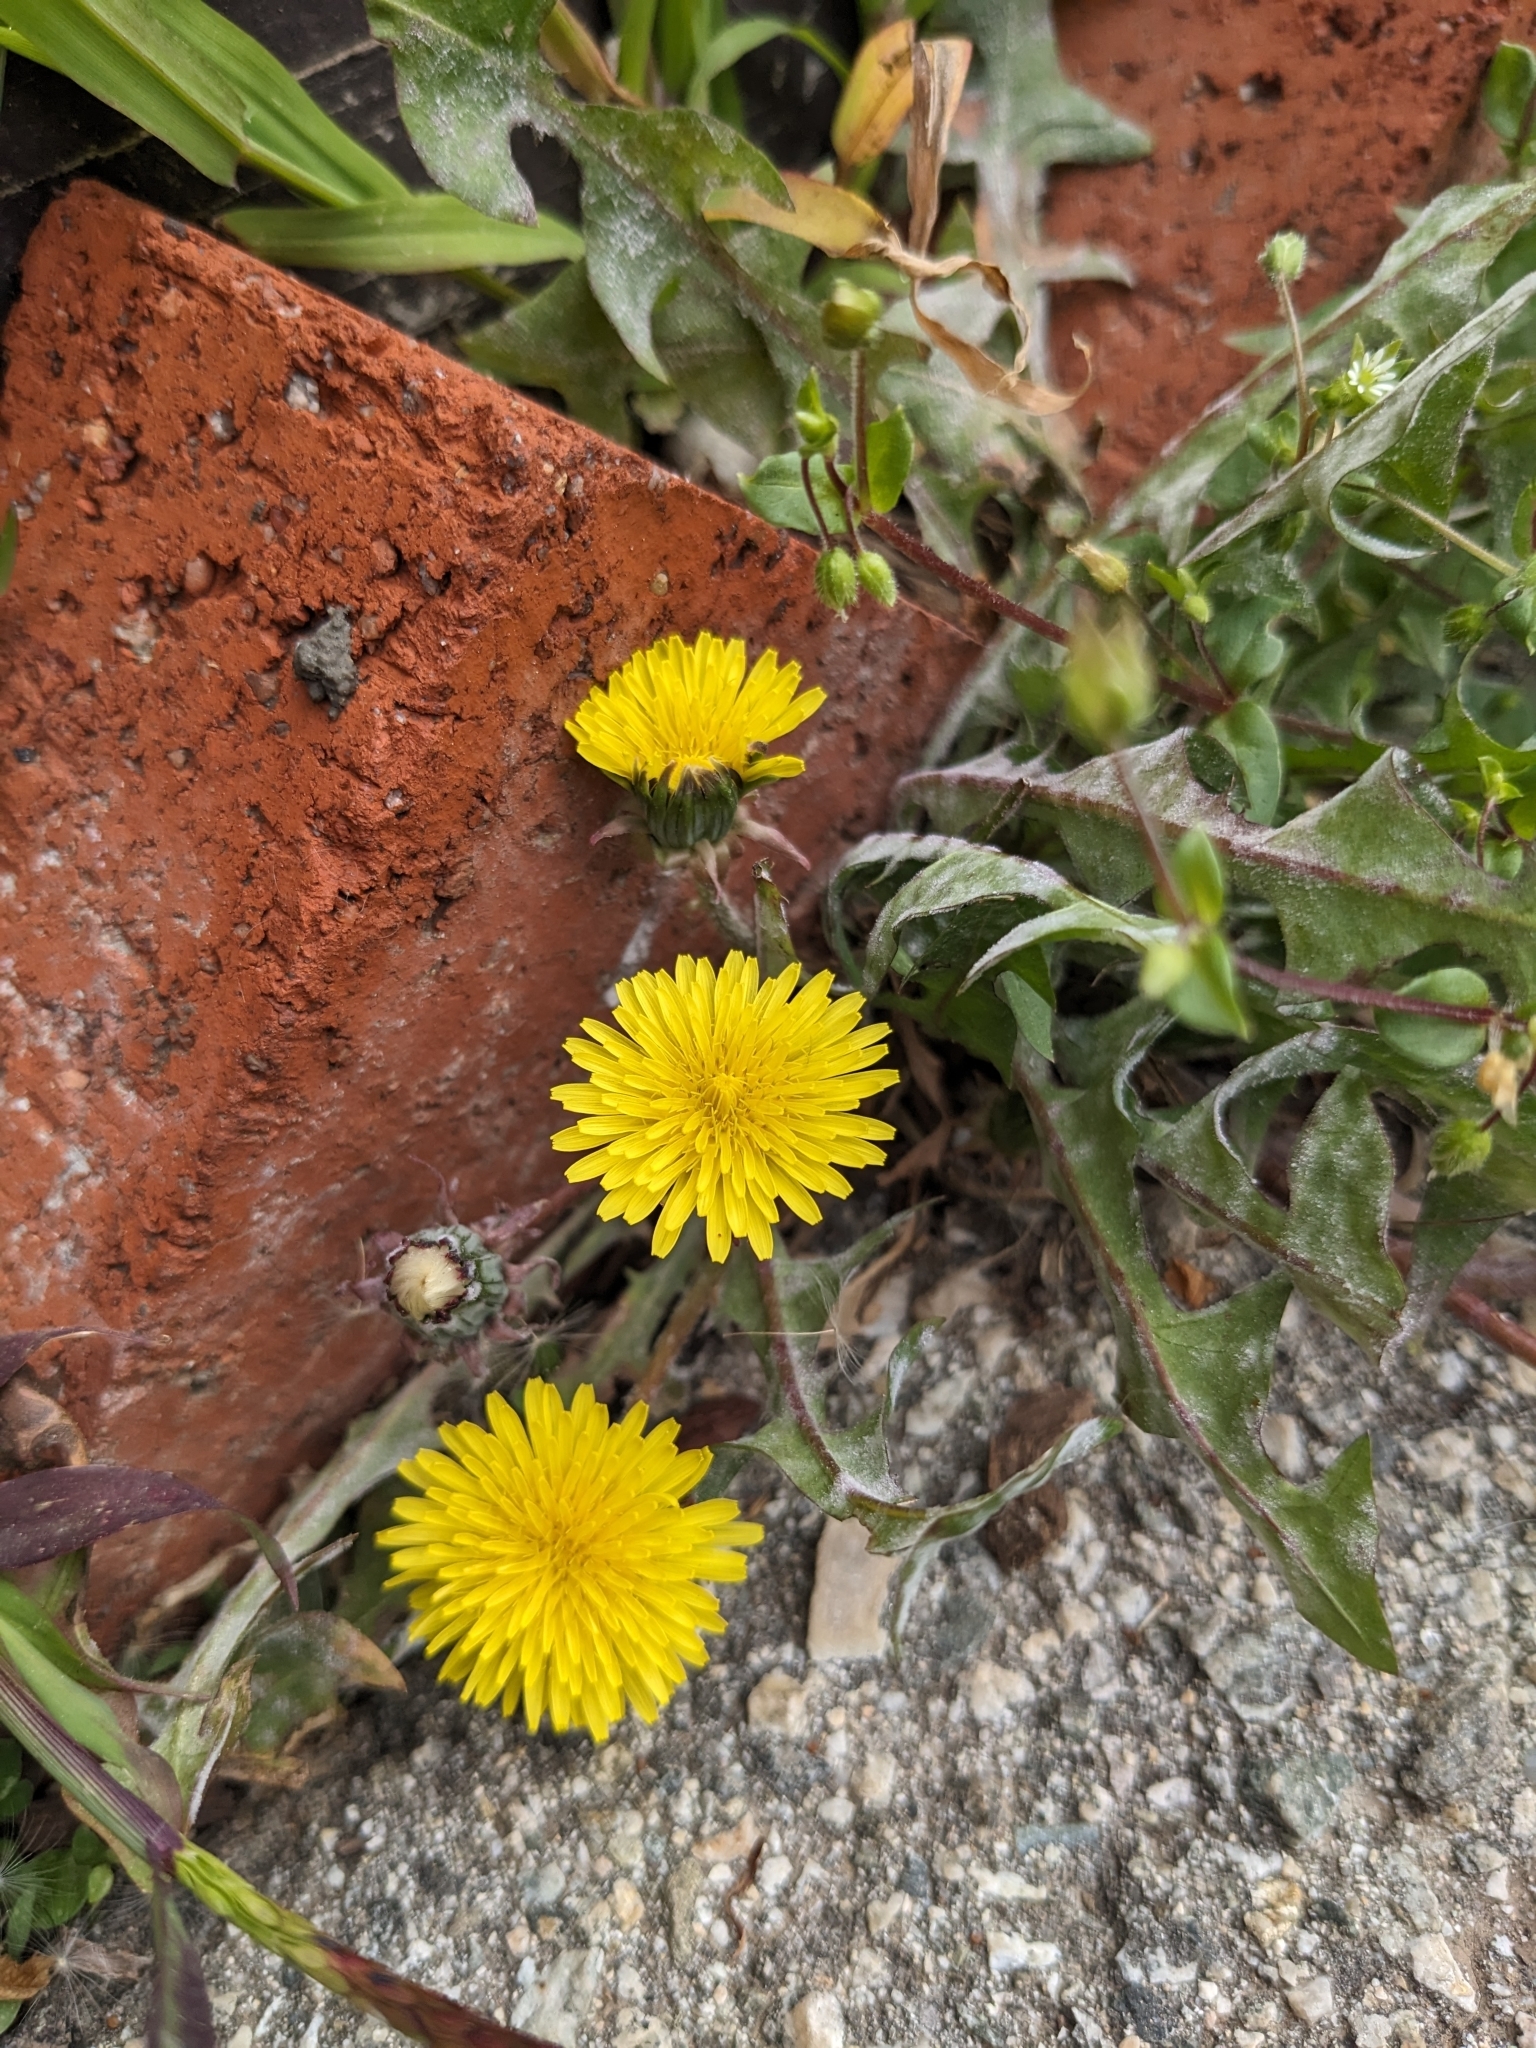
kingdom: Plantae
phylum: Tracheophyta
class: Magnoliopsida
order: Asterales
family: Asteraceae
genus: Taraxacum
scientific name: Taraxacum officinale
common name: Common dandelion
